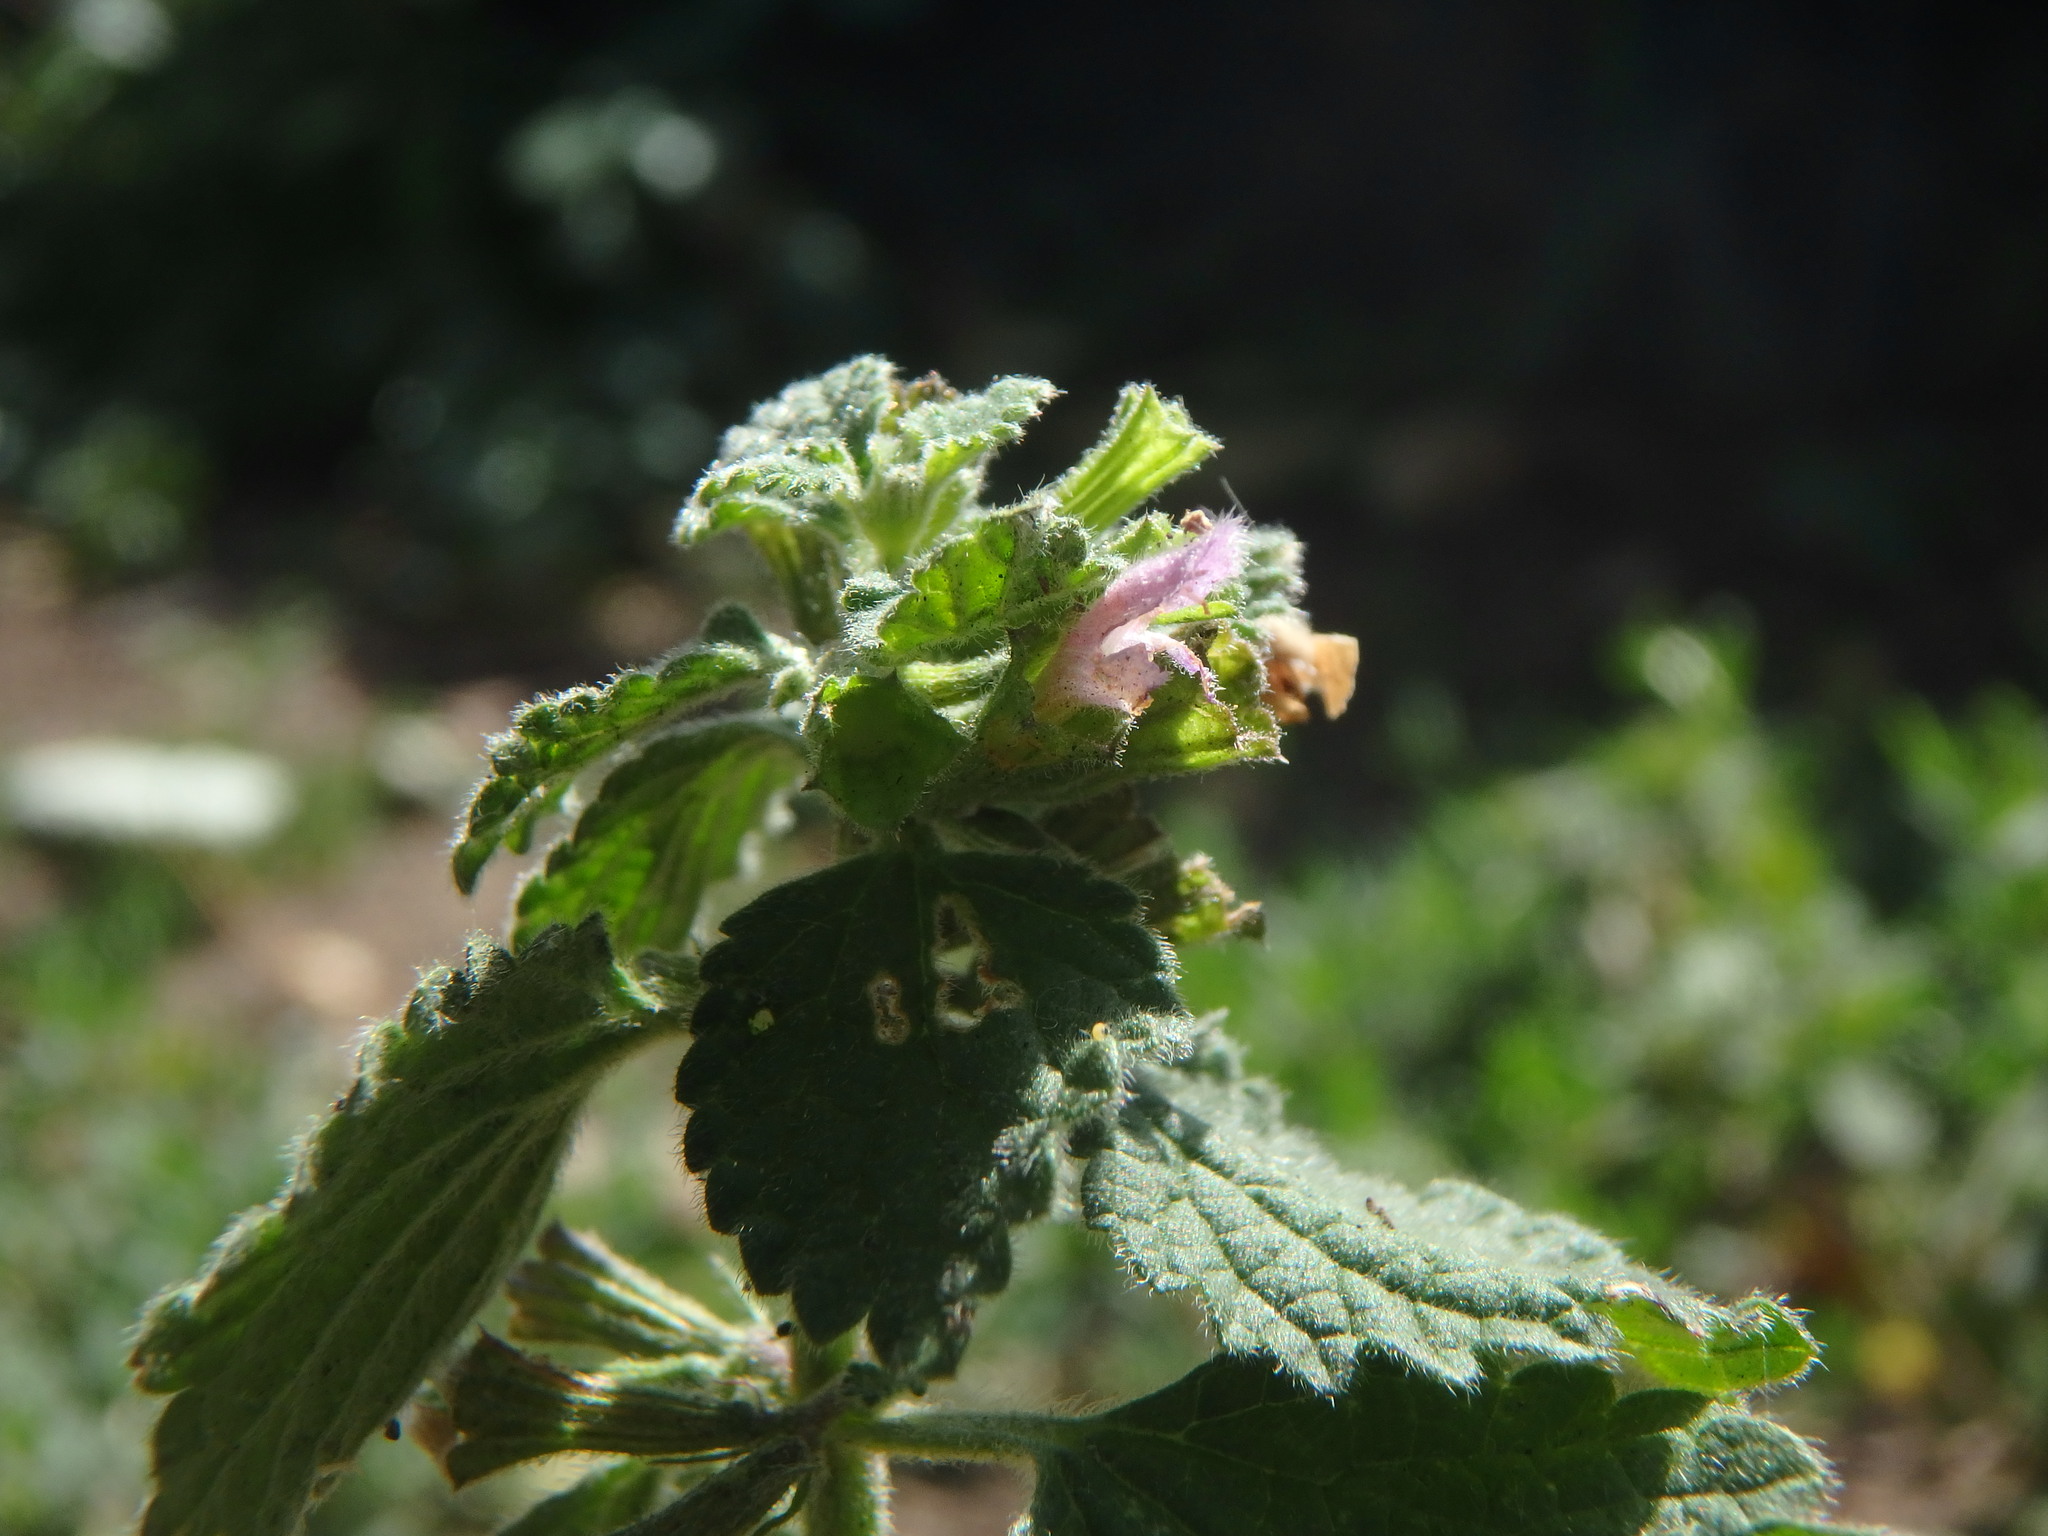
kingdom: Plantae
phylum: Tracheophyta
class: Magnoliopsida
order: Lamiales
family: Lamiaceae
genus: Ballota
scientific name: Ballota nigra
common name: Black horehound
